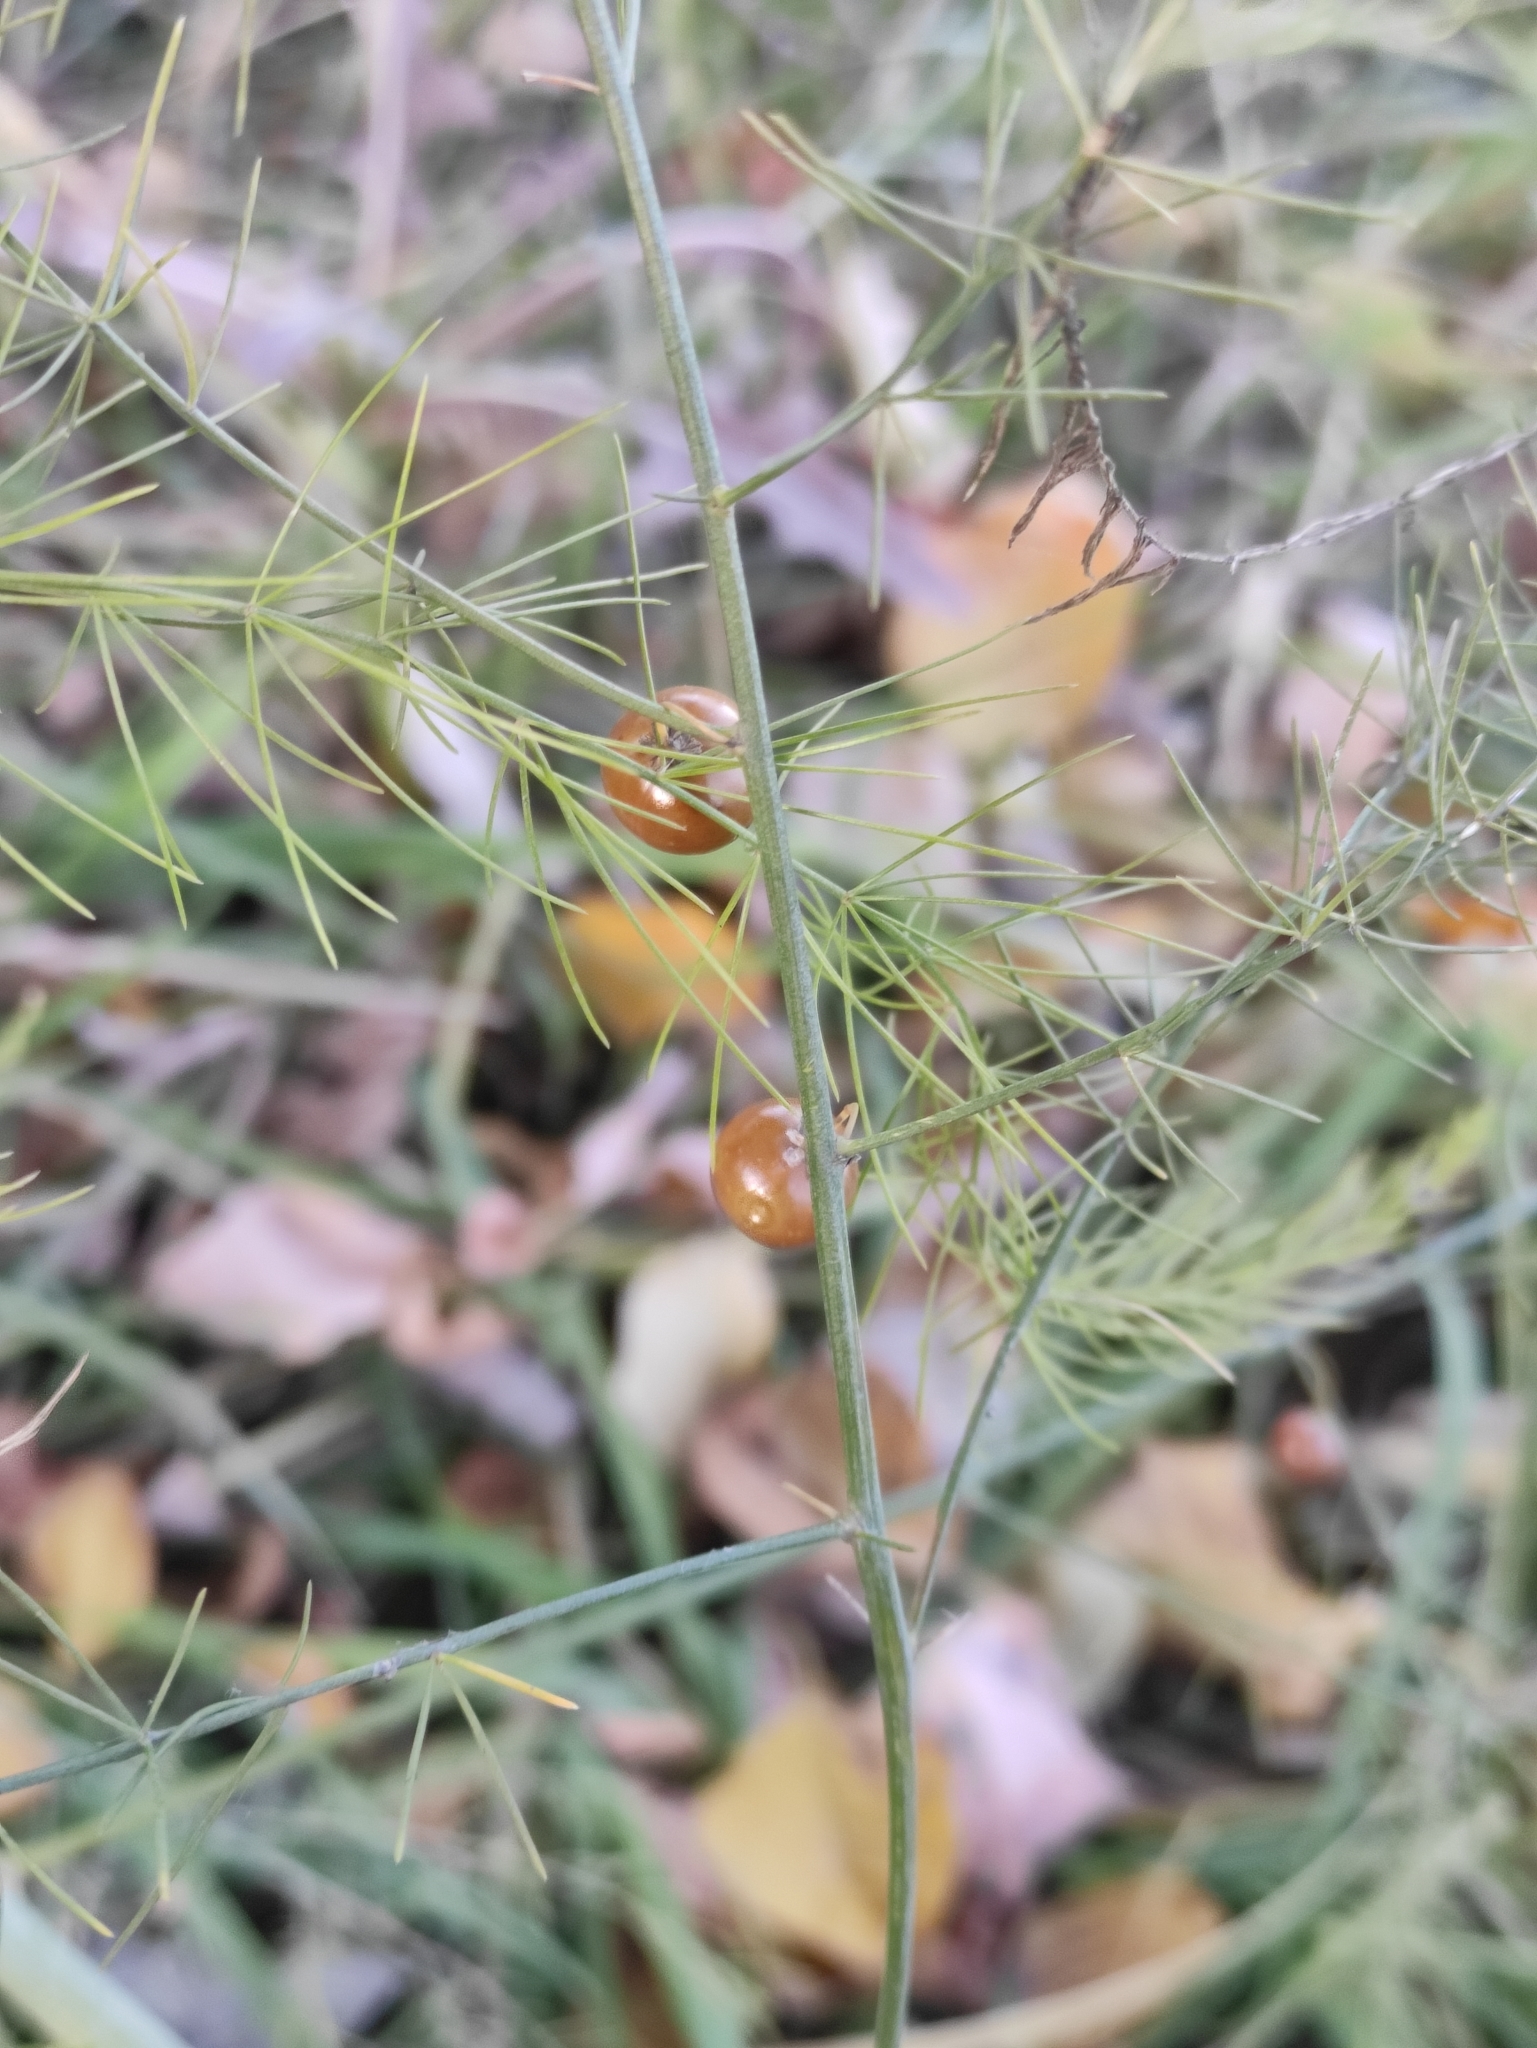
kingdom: Plantae
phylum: Tracheophyta
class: Liliopsida
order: Asparagales
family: Asparagaceae
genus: Asparagus
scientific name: Asparagus officinalis
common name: Garden asparagus
